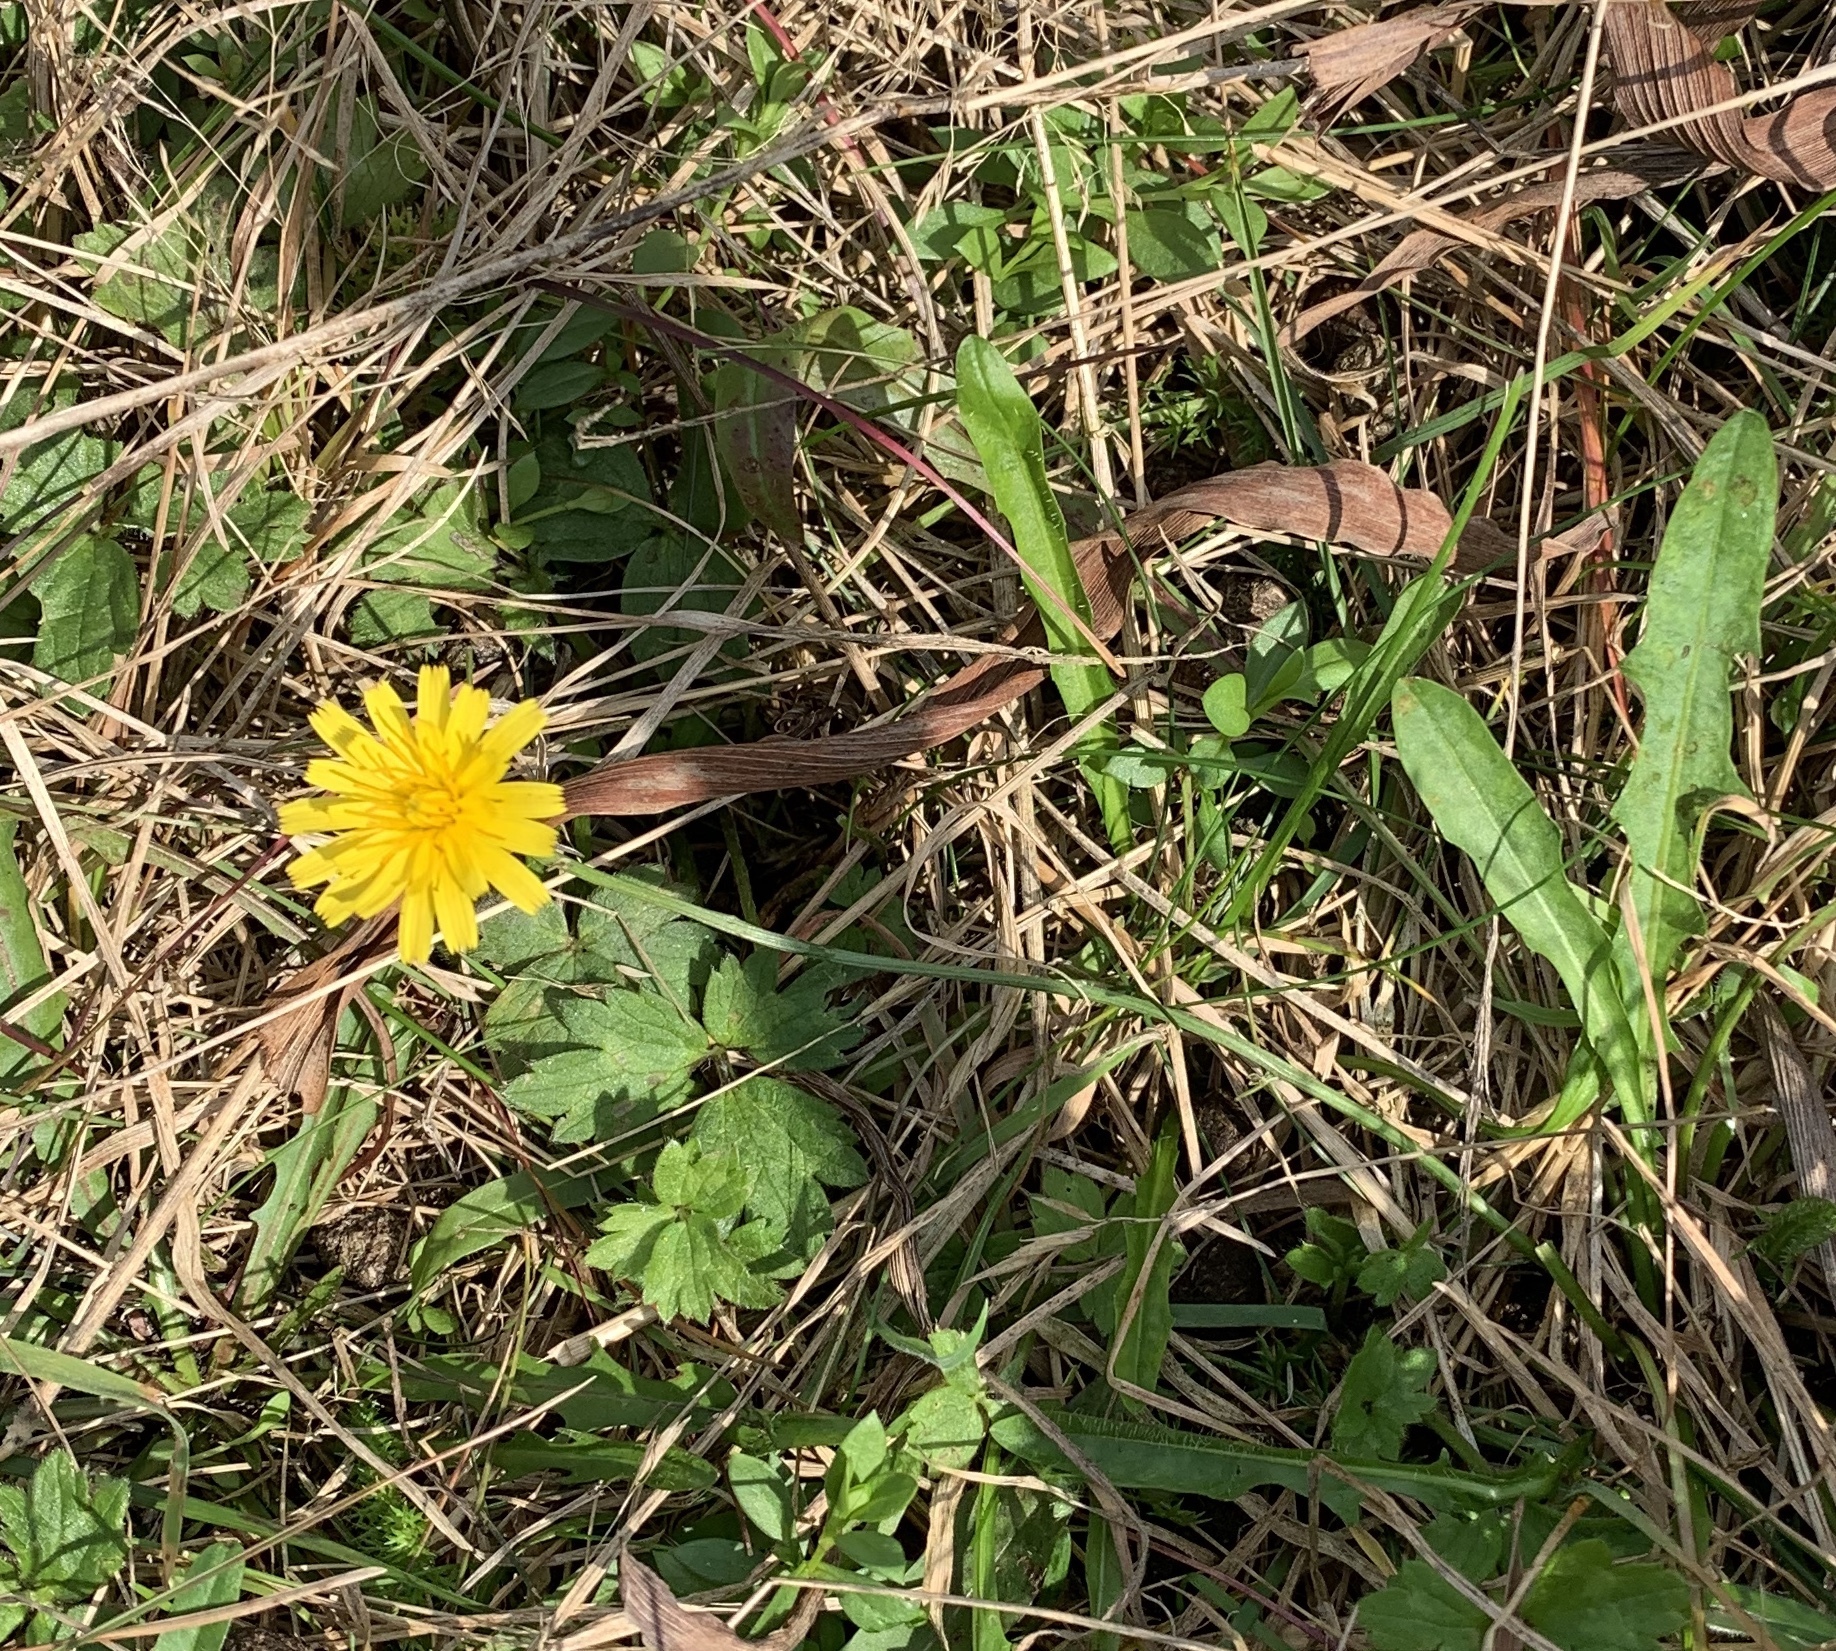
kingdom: Plantae
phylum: Tracheophyta
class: Magnoliopsida
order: Asterales
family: Asteraceae
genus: Taraxacum
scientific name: Taraxacum officinale
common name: Common dandelion
